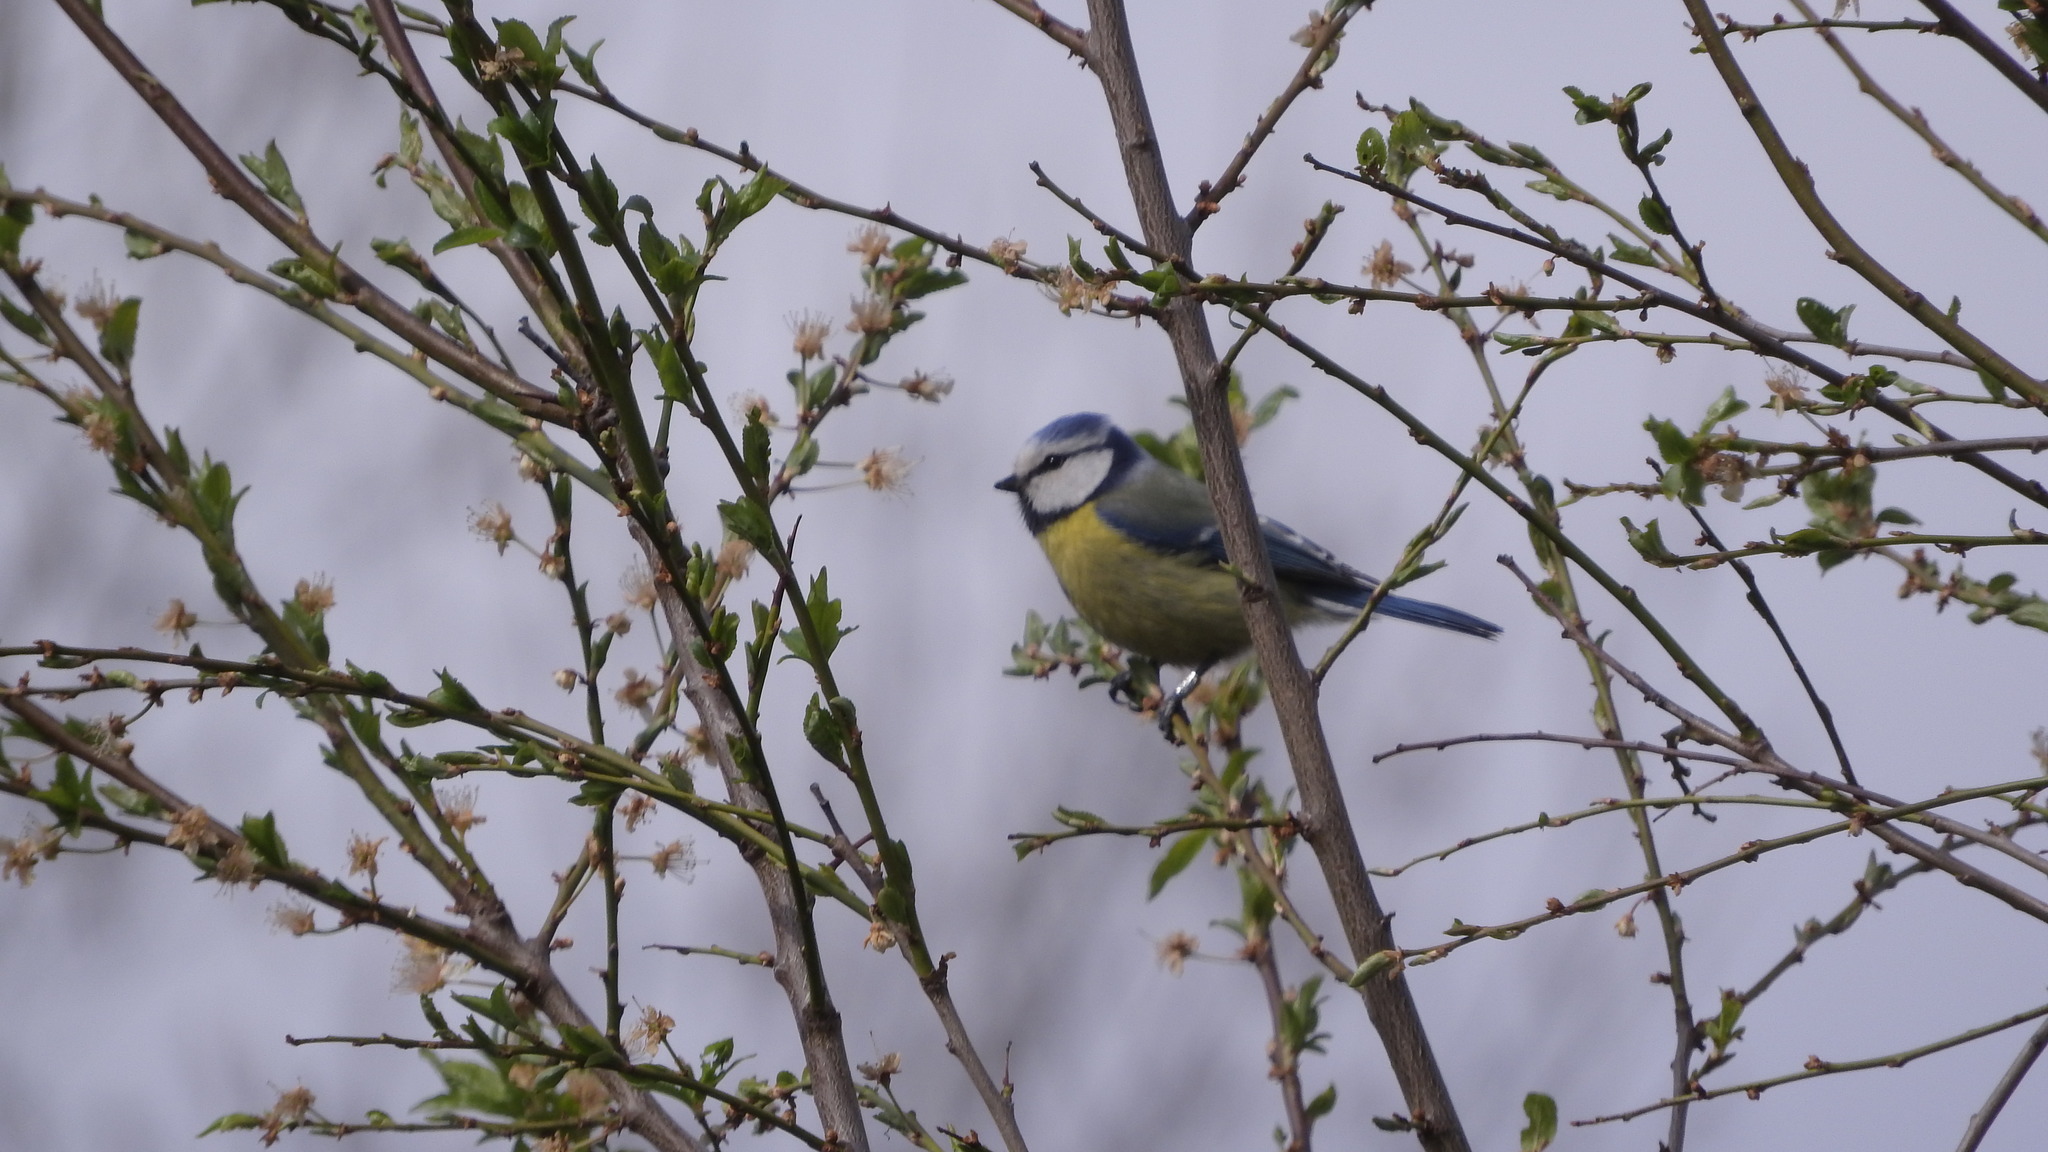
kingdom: Animalia
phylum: Chordata
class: Aves
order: Passeriformes
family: Paridae
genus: Cyanistes
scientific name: Cyanistes caeruleus
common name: Eurasian blue tit
